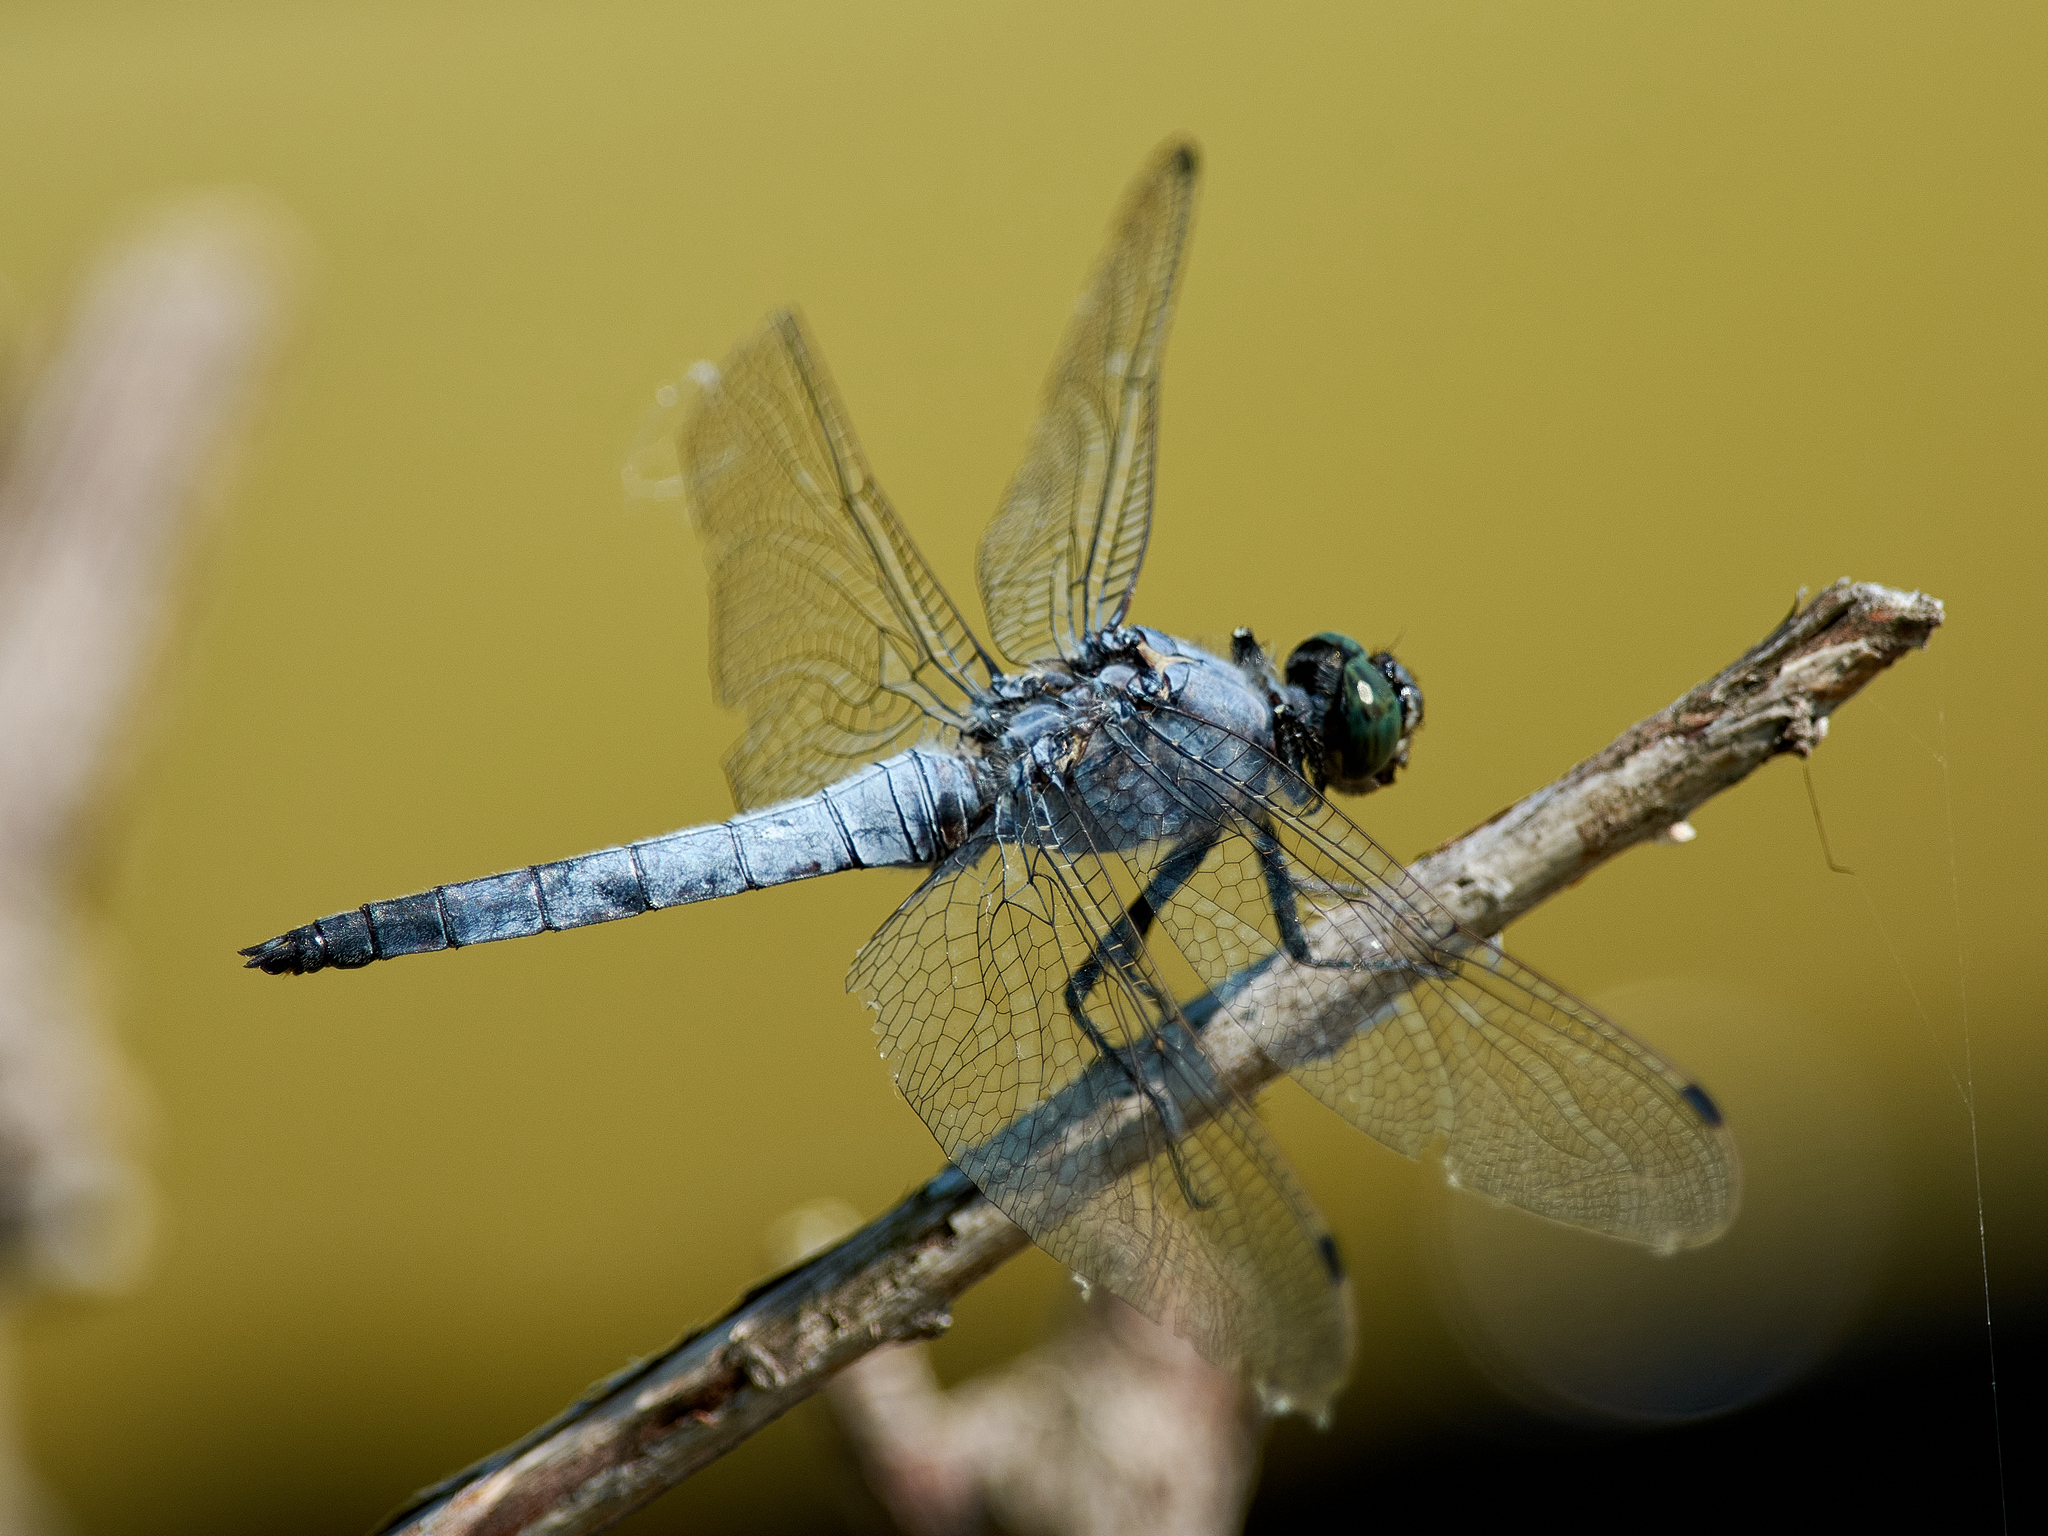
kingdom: Animalia
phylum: Arthropoda
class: Insecta
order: Odonata
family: Libellulidae
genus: Orthetrum
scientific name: Orthetrum cancellatum
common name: Black-tailed skimmer
